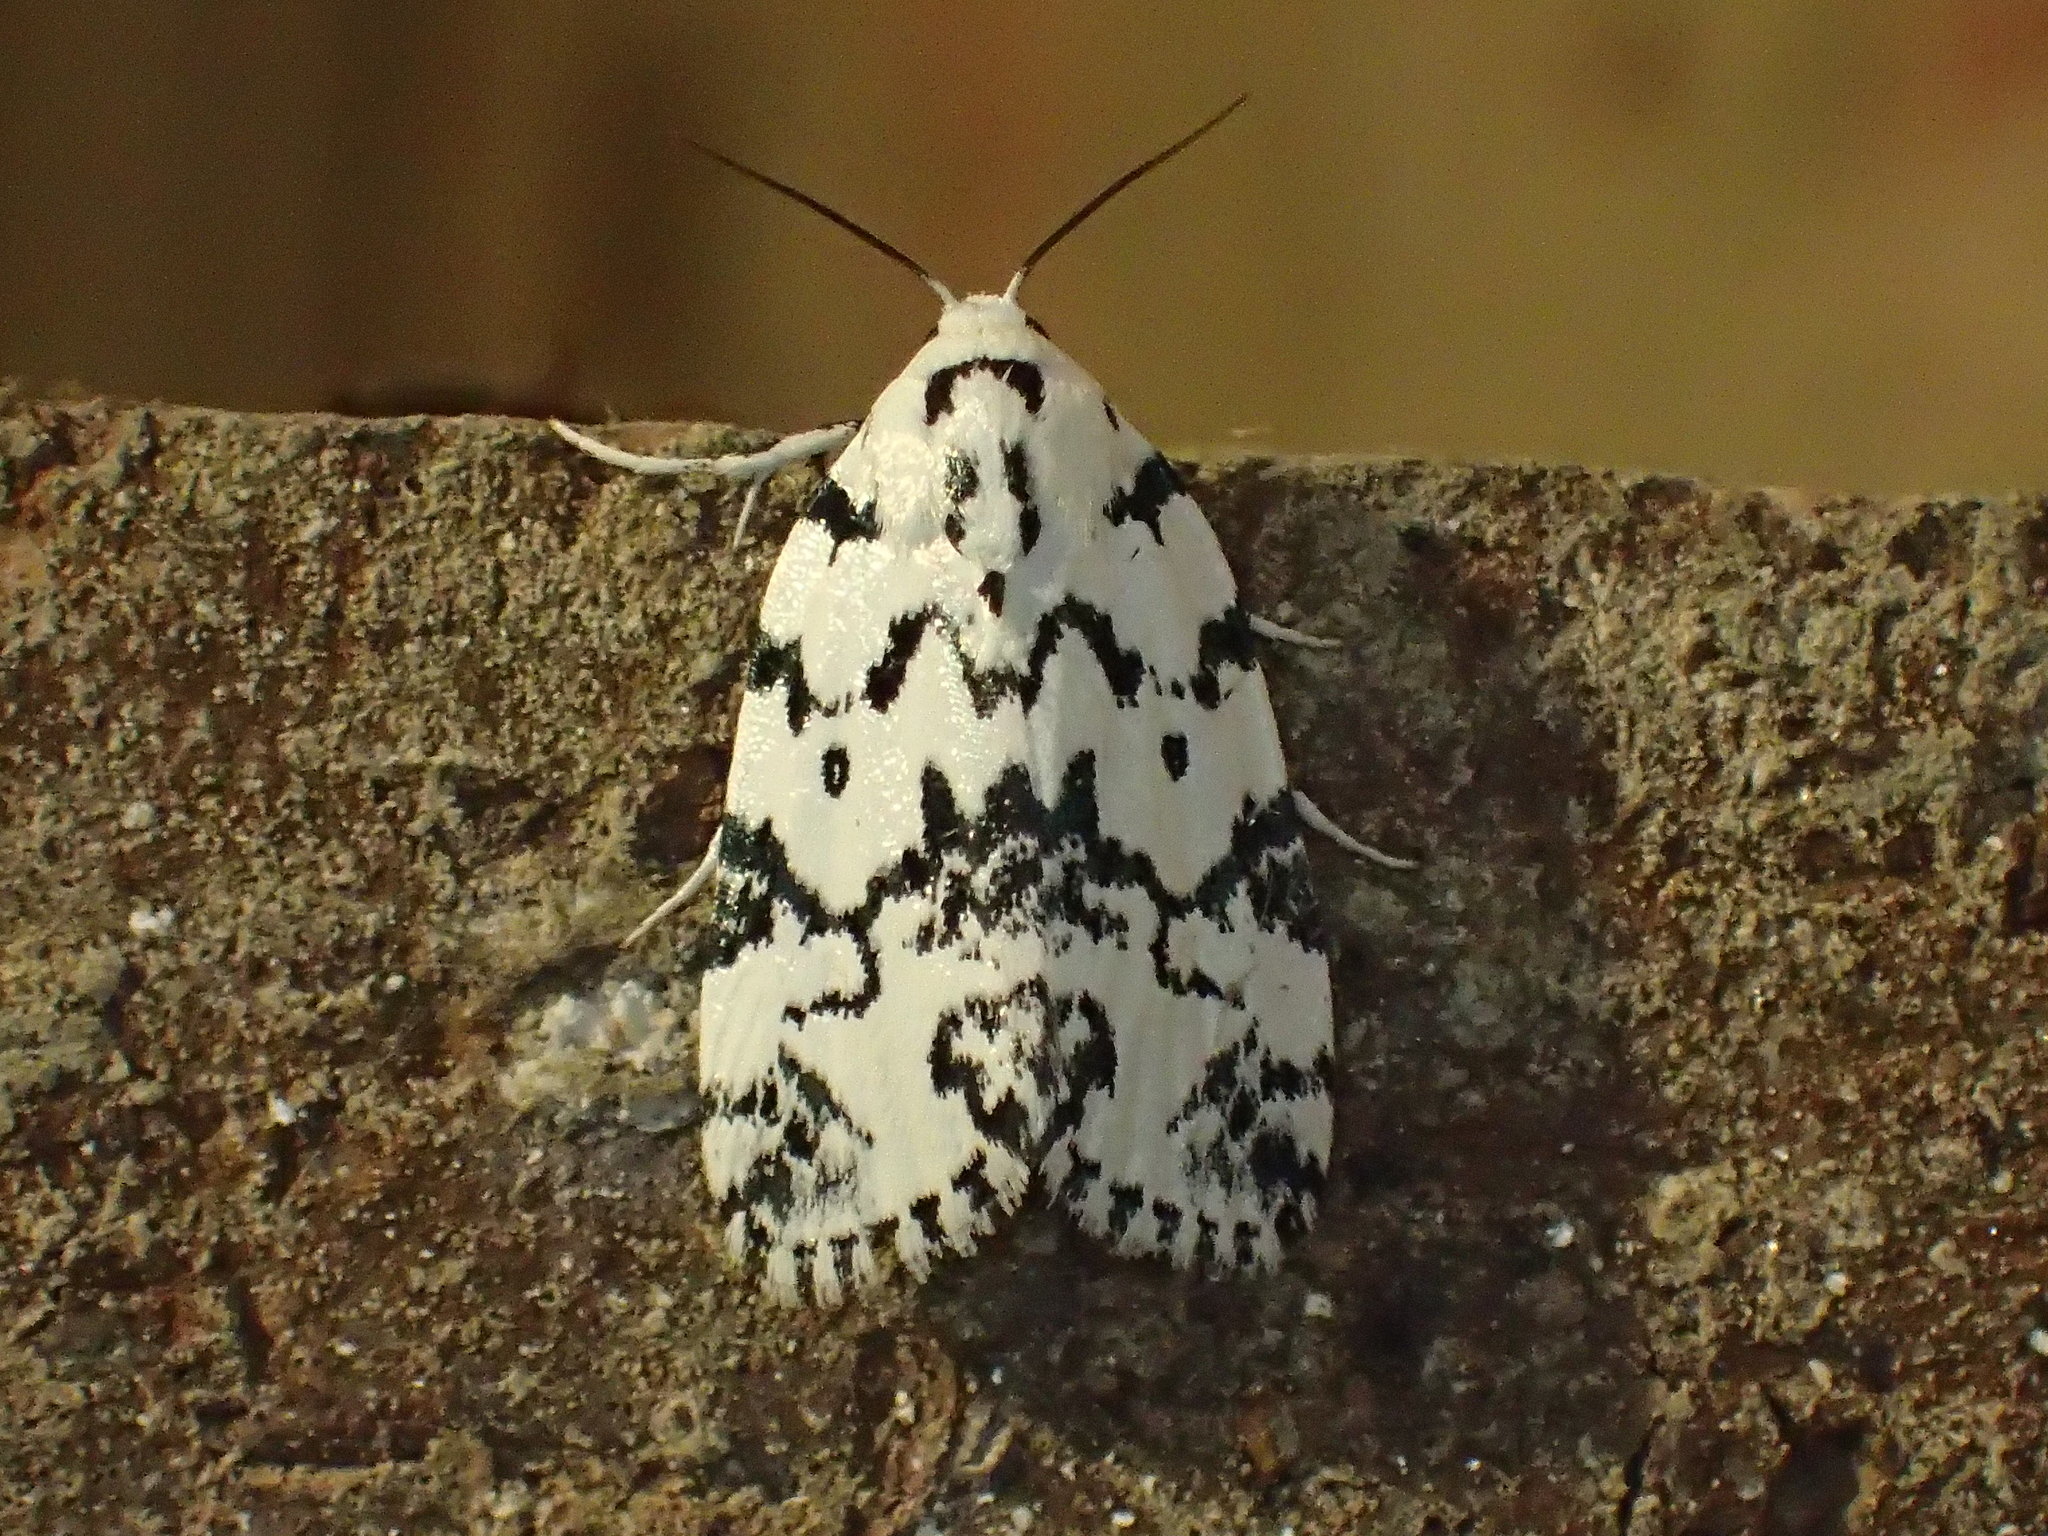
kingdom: Animalia
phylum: Arthropoda
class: Insecta
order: Lepidoptera
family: Noctuidae
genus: Polygrammate
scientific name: Polygrammate hebraeicum
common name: Hebrew moth
